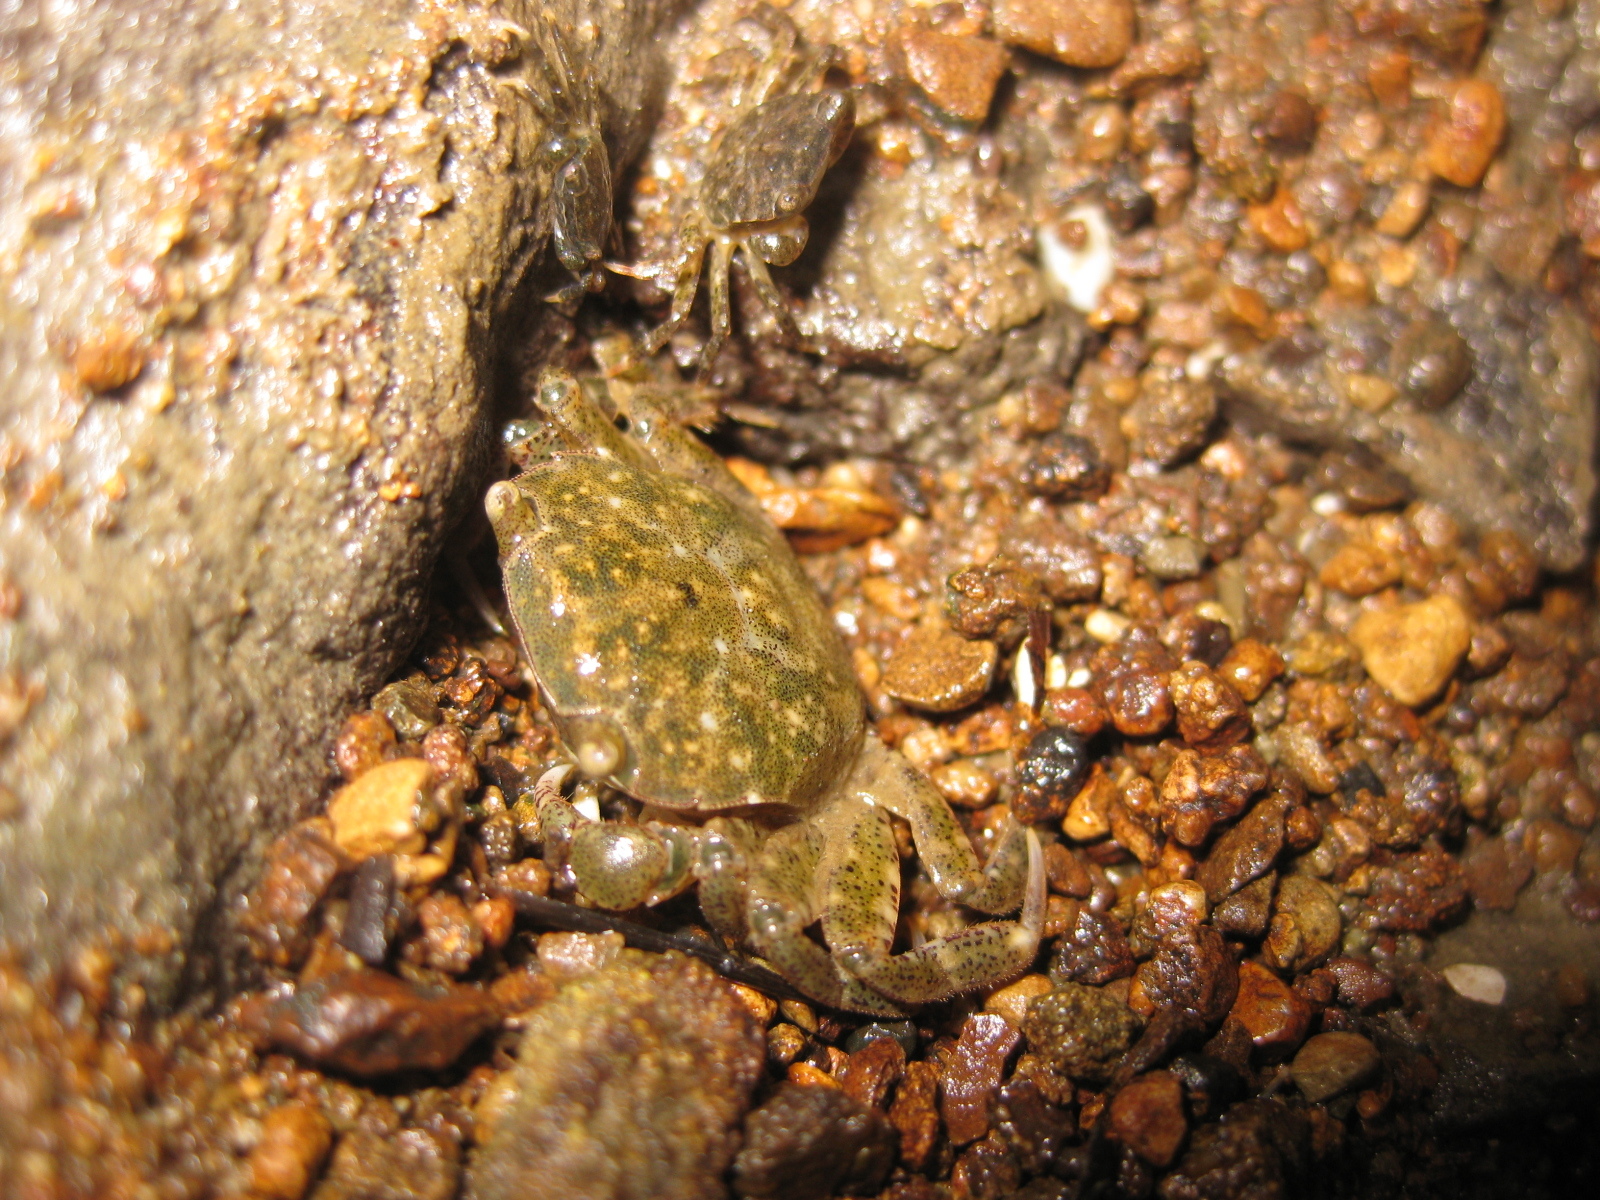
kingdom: Animalia
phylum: Arthropoda
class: Malacostraca
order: Decapoda
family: Varunidae
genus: Hemigrapsus
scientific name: Hemigrapsus crenulatus
